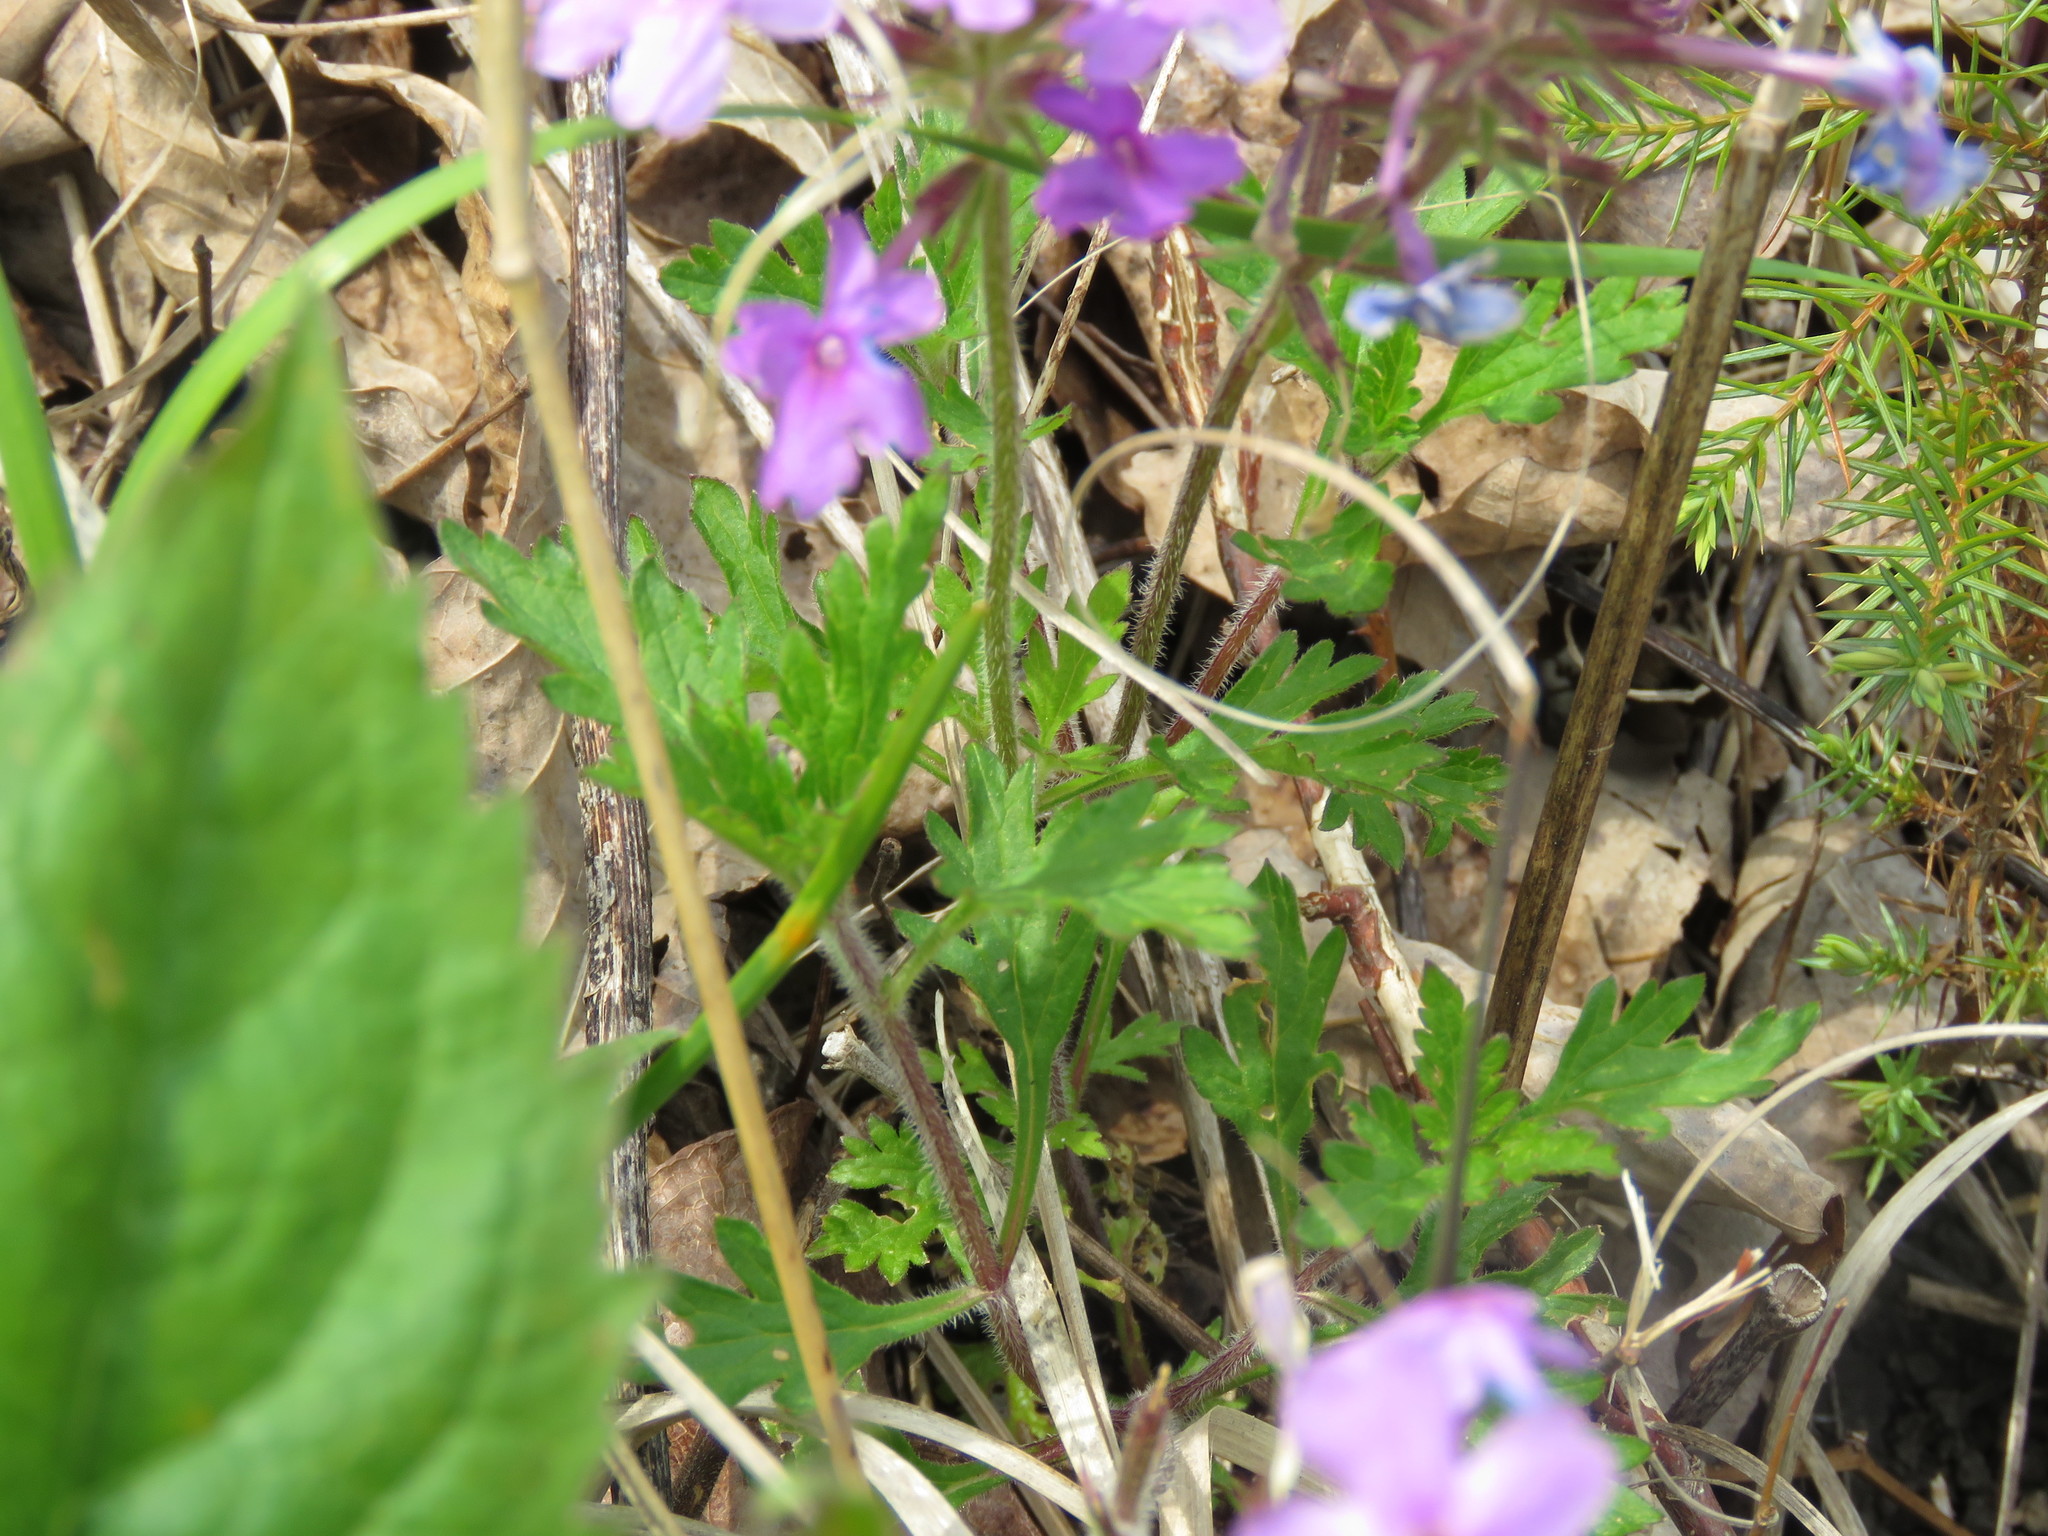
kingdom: Plantae
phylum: Tracheophyta
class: Magnoliopsida
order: Lamiales
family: Verbenaceae
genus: Verbena
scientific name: Verbena canadensis
